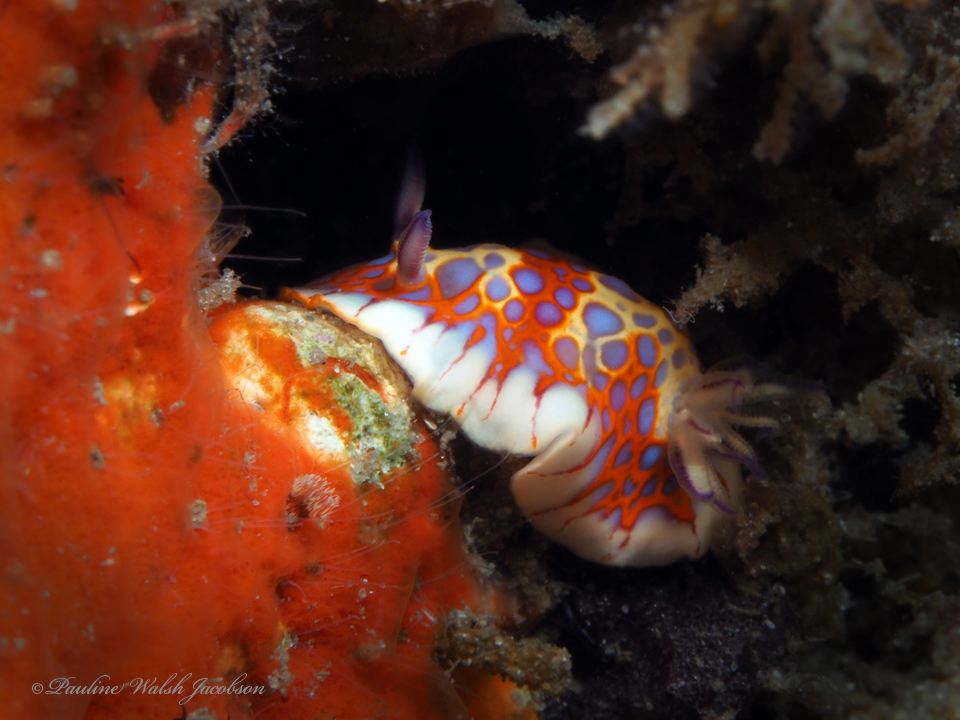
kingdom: Animalia
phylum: Mollusca
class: Gastropoda
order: Nudibranchia
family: Chromodorididae
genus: Felimida
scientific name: Felimida binza
